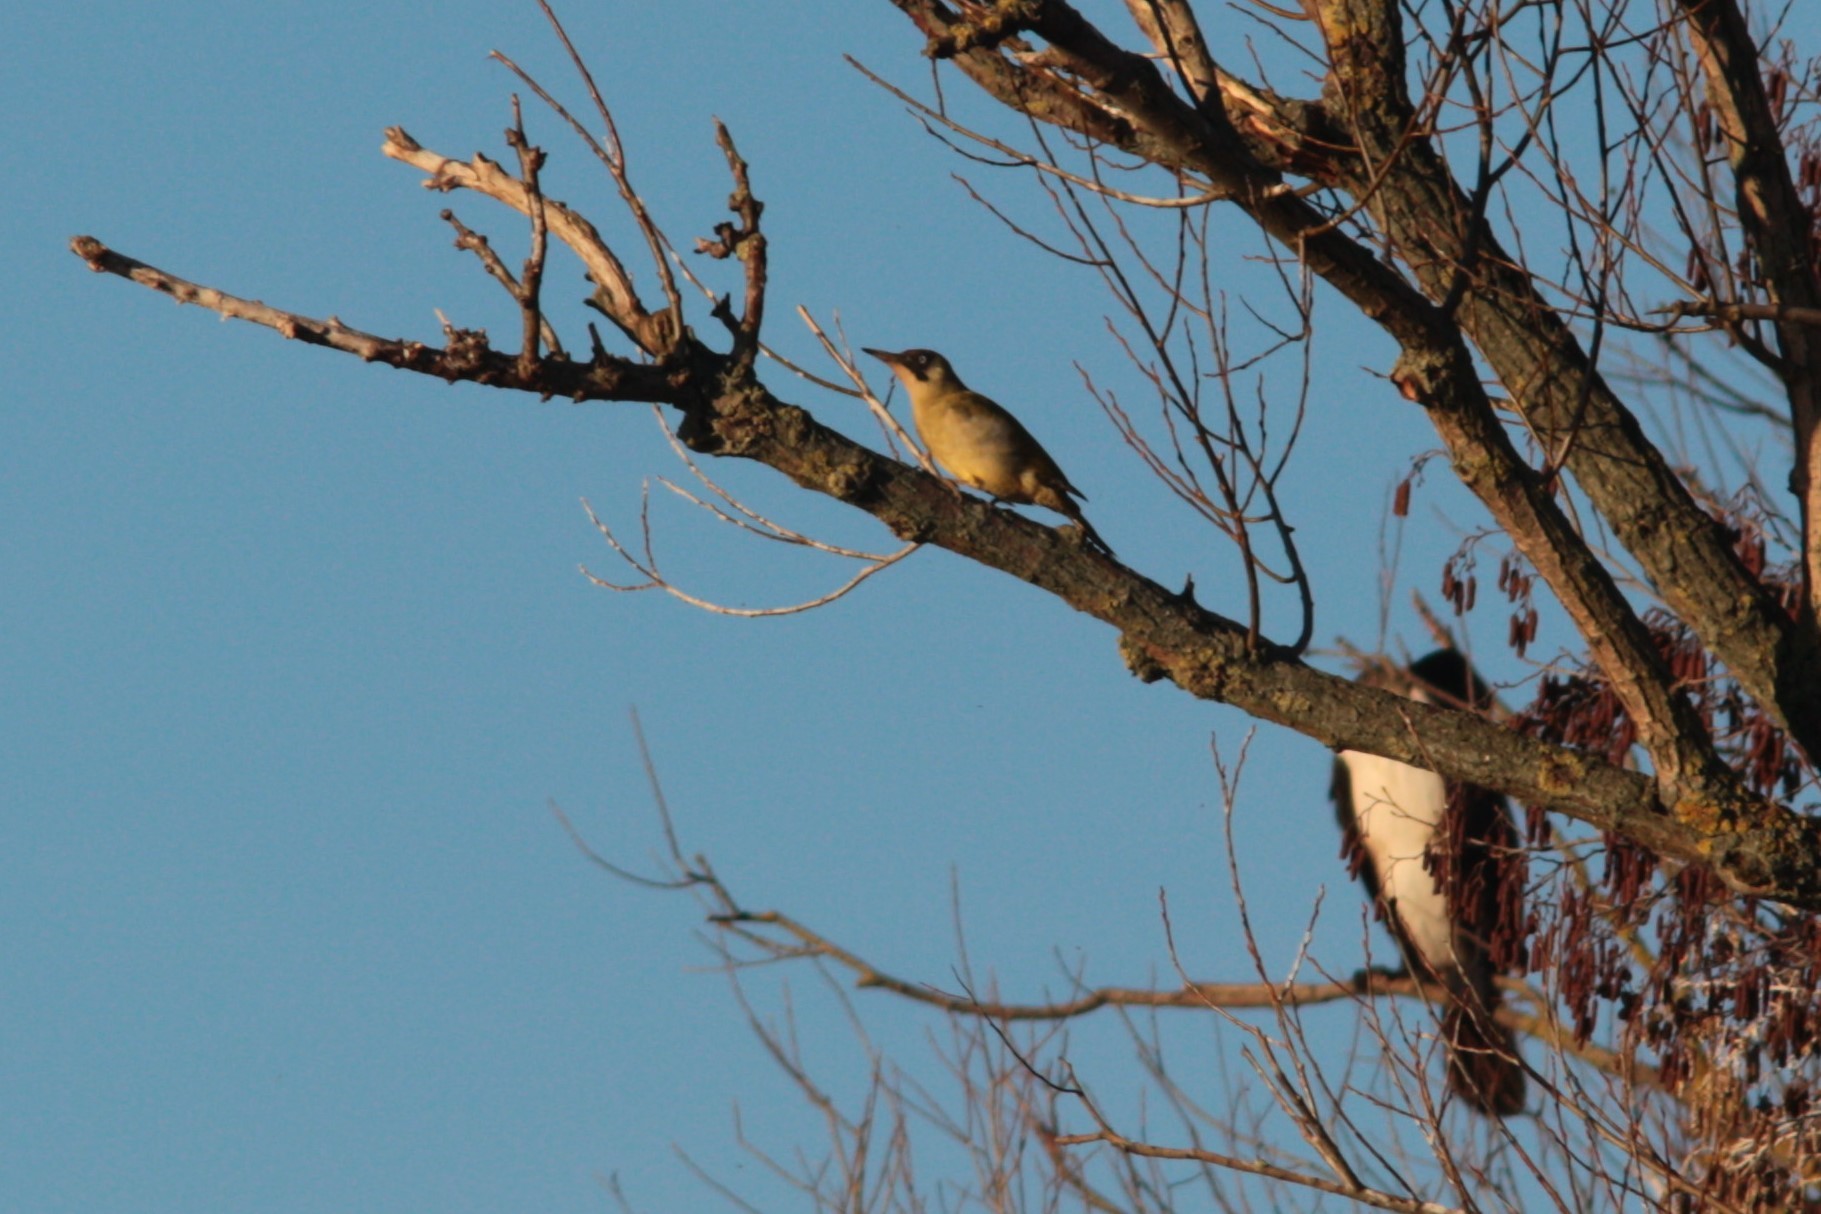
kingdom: Animalia
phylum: Chordata
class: Aves
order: Piciformes
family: Picidae
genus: Picus
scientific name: Picus viridis
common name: European green woodpecker
